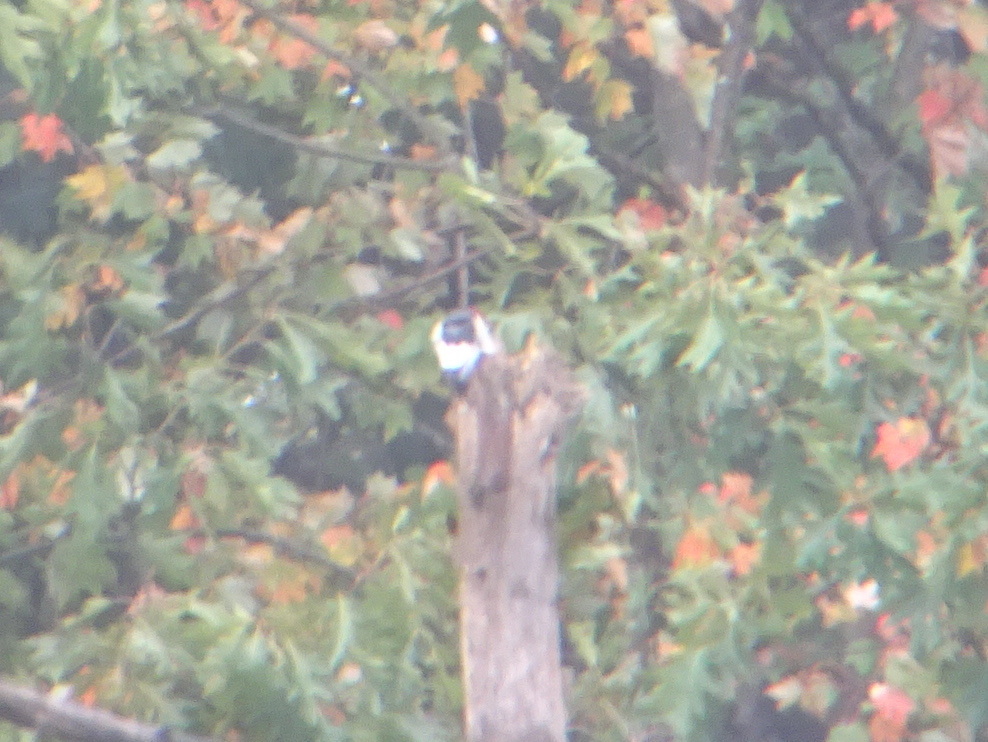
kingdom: Animalia
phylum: Chordata
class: Aves
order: Piciformes
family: Picidae
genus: Melanerpes
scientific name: Melanerpes erythrocephalus
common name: Red-headed woodpecker
